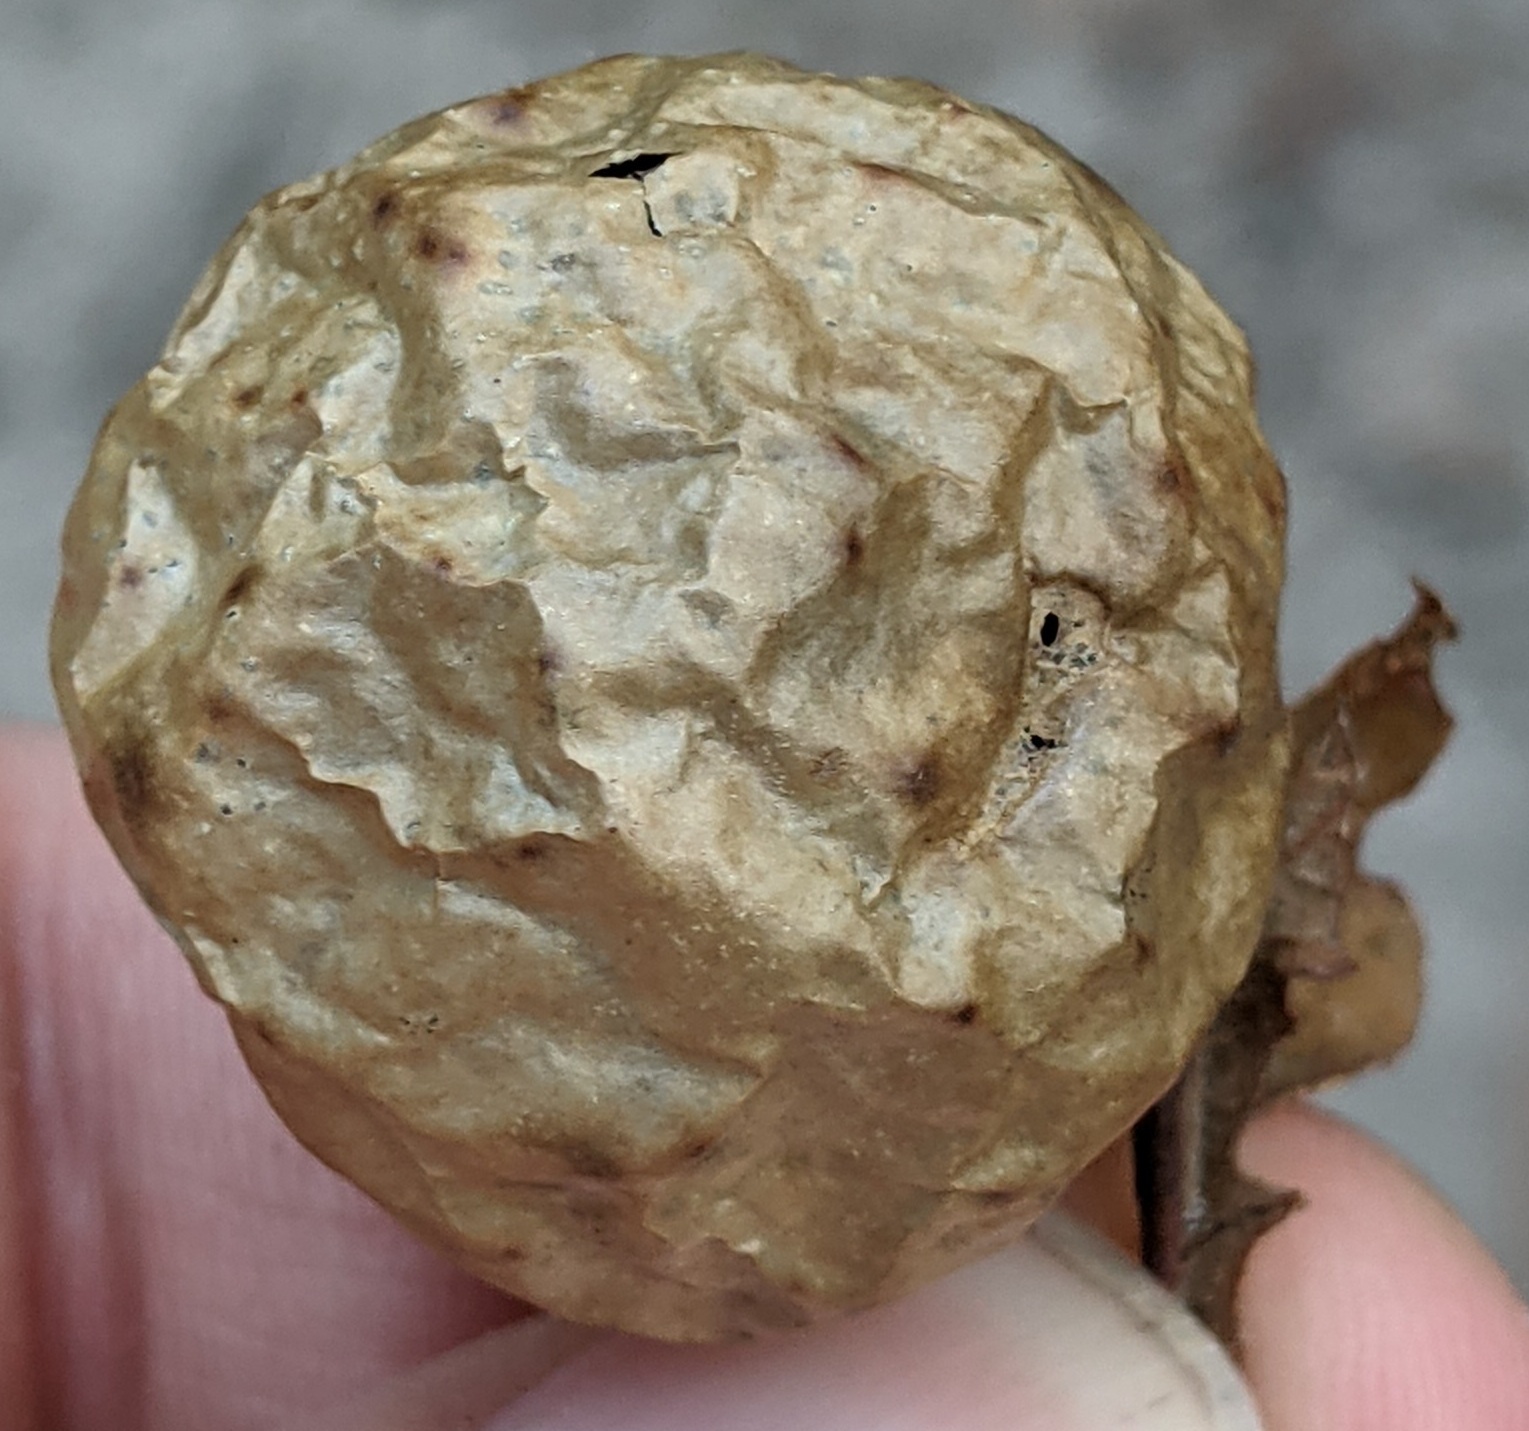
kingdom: Animalia
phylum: Arthropoda
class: Insecta
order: Hymenoptera
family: Cynipidae
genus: Amphibolips
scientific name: Amphibolips
